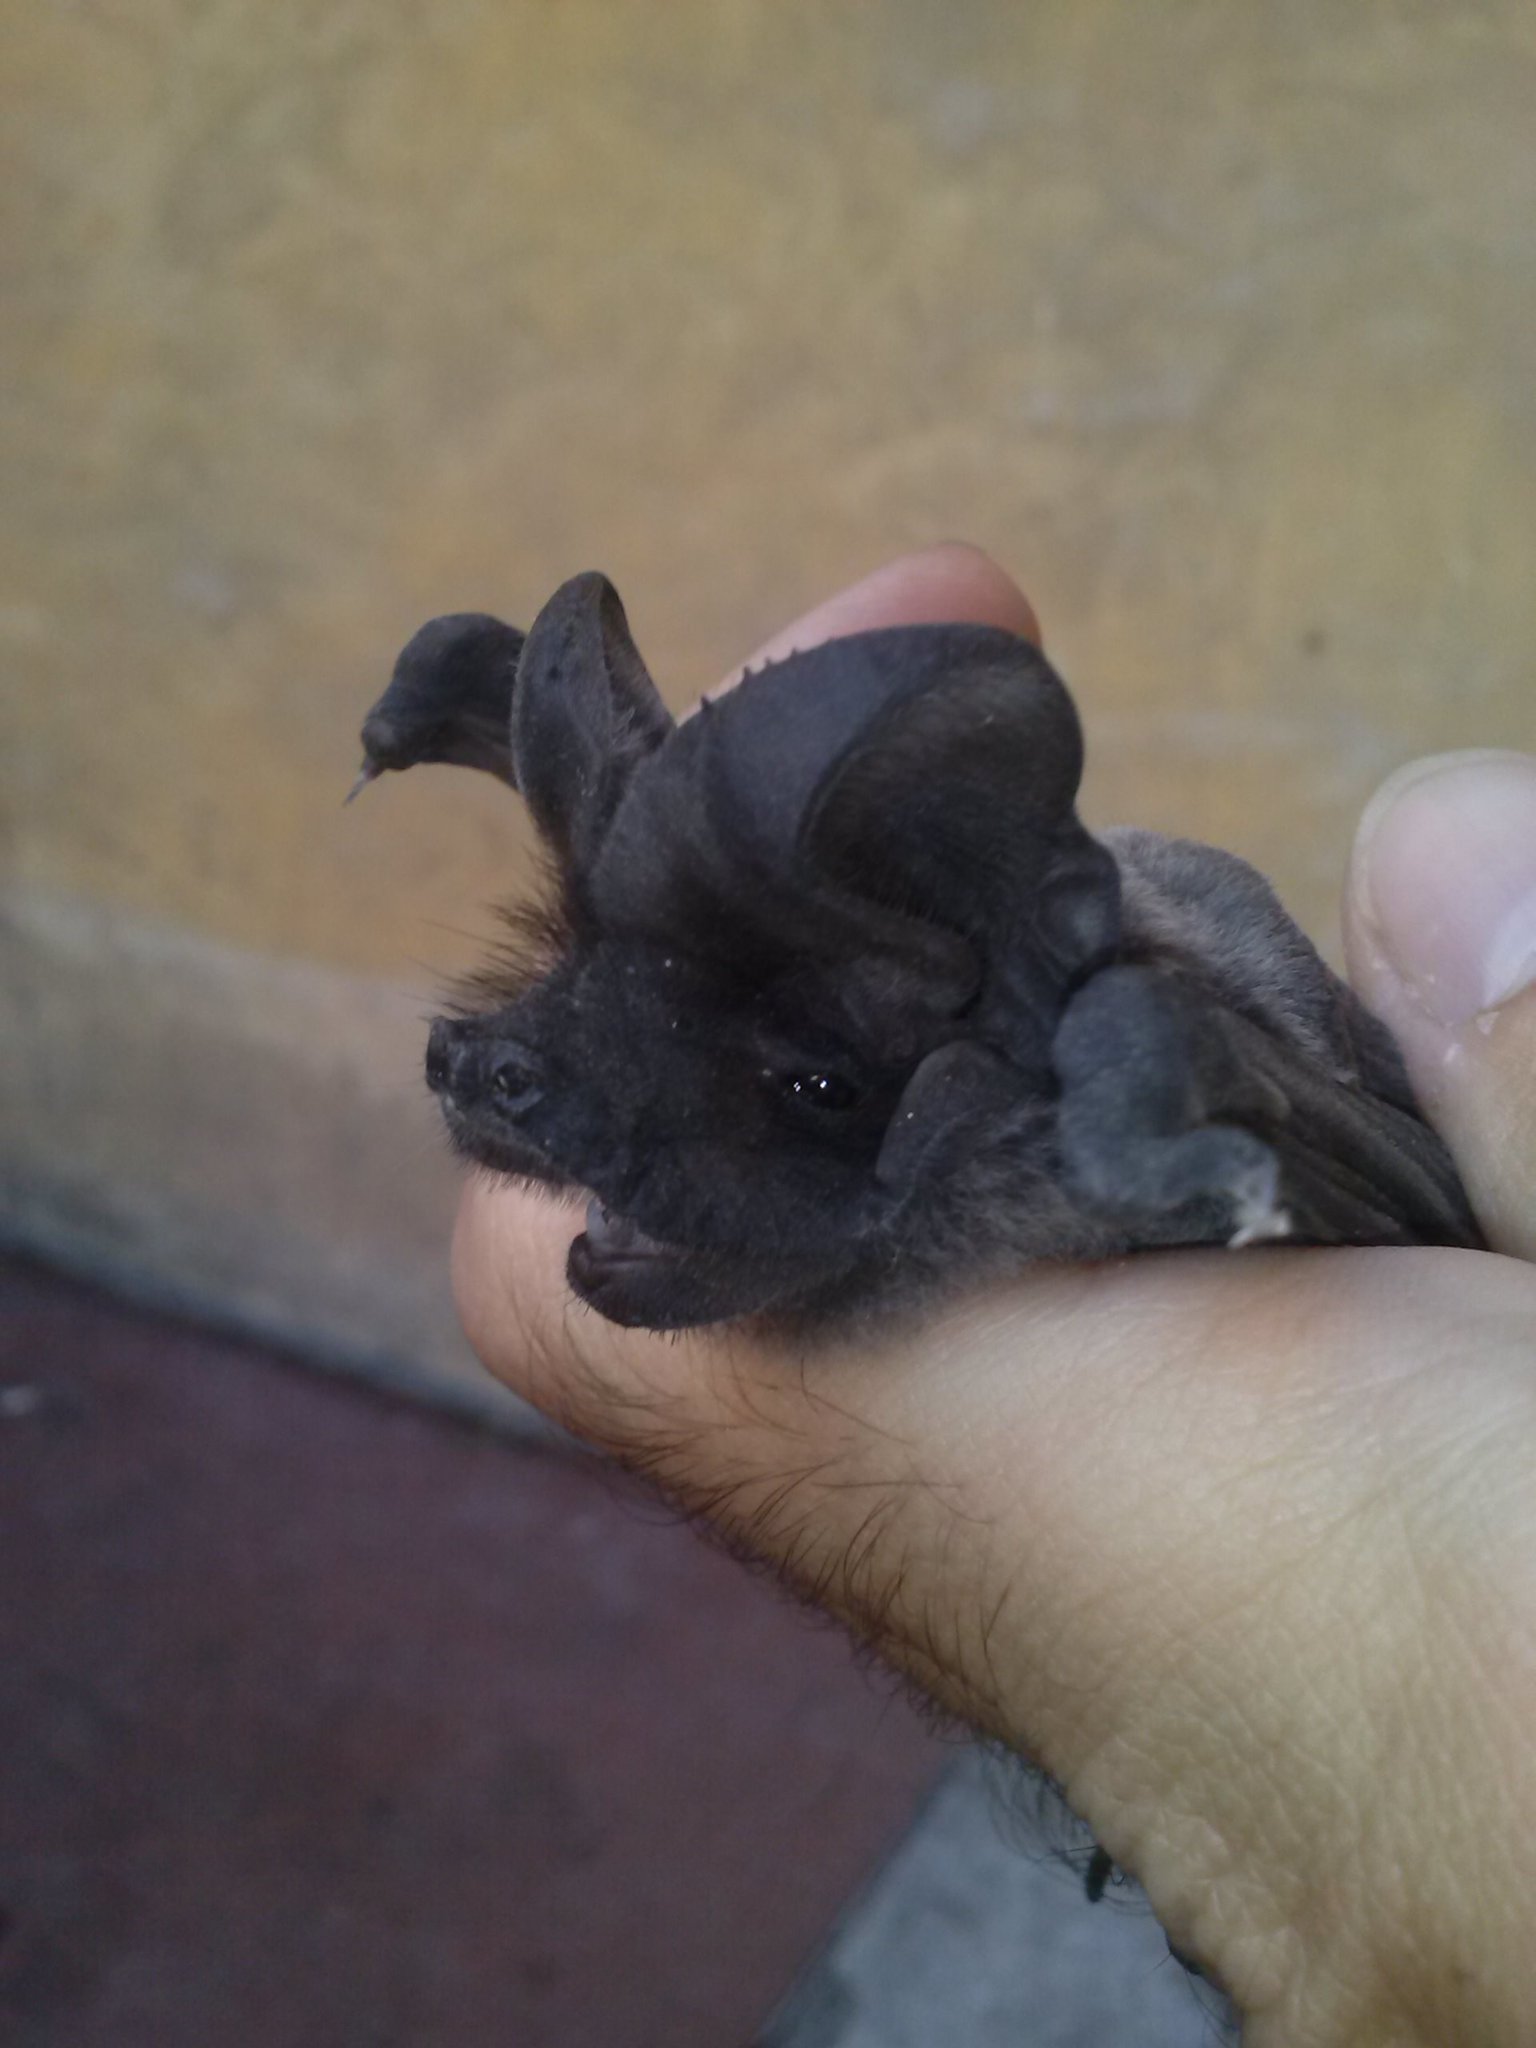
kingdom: Animalia
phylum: Chordata
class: Mammalia
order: Chiroptera
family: Molossidae
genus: Tadarida
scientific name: Tadarida teniotis
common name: European free-tailed bat
